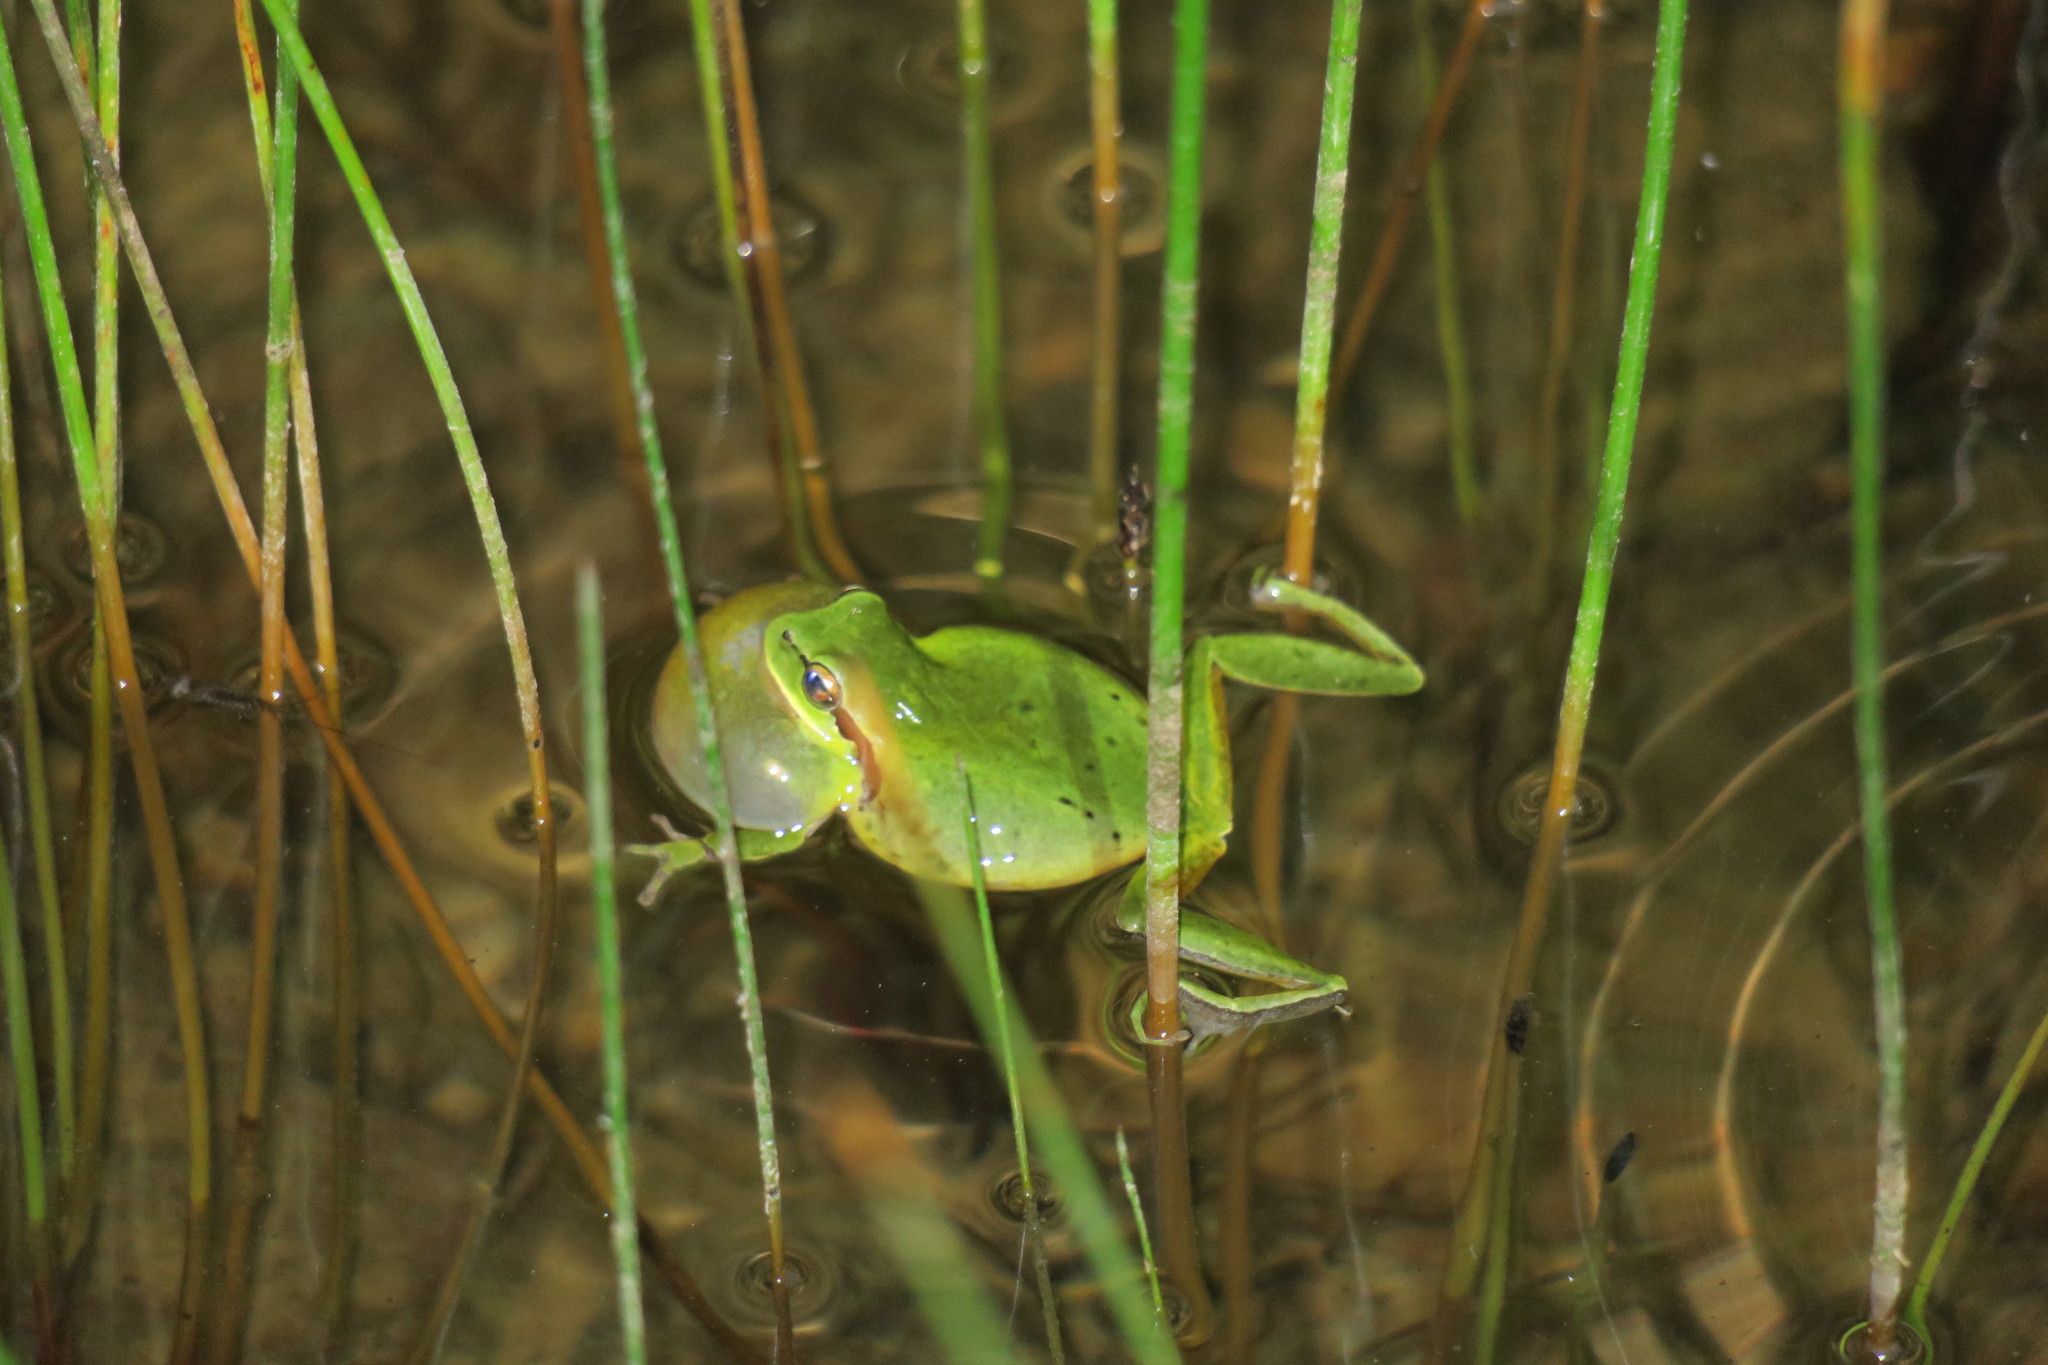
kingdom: Animalia
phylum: Chordata
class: Amphibia
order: Anura
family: Hylidae
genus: Hyla
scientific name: Hyla meridionalis
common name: Stripeless tree frog
